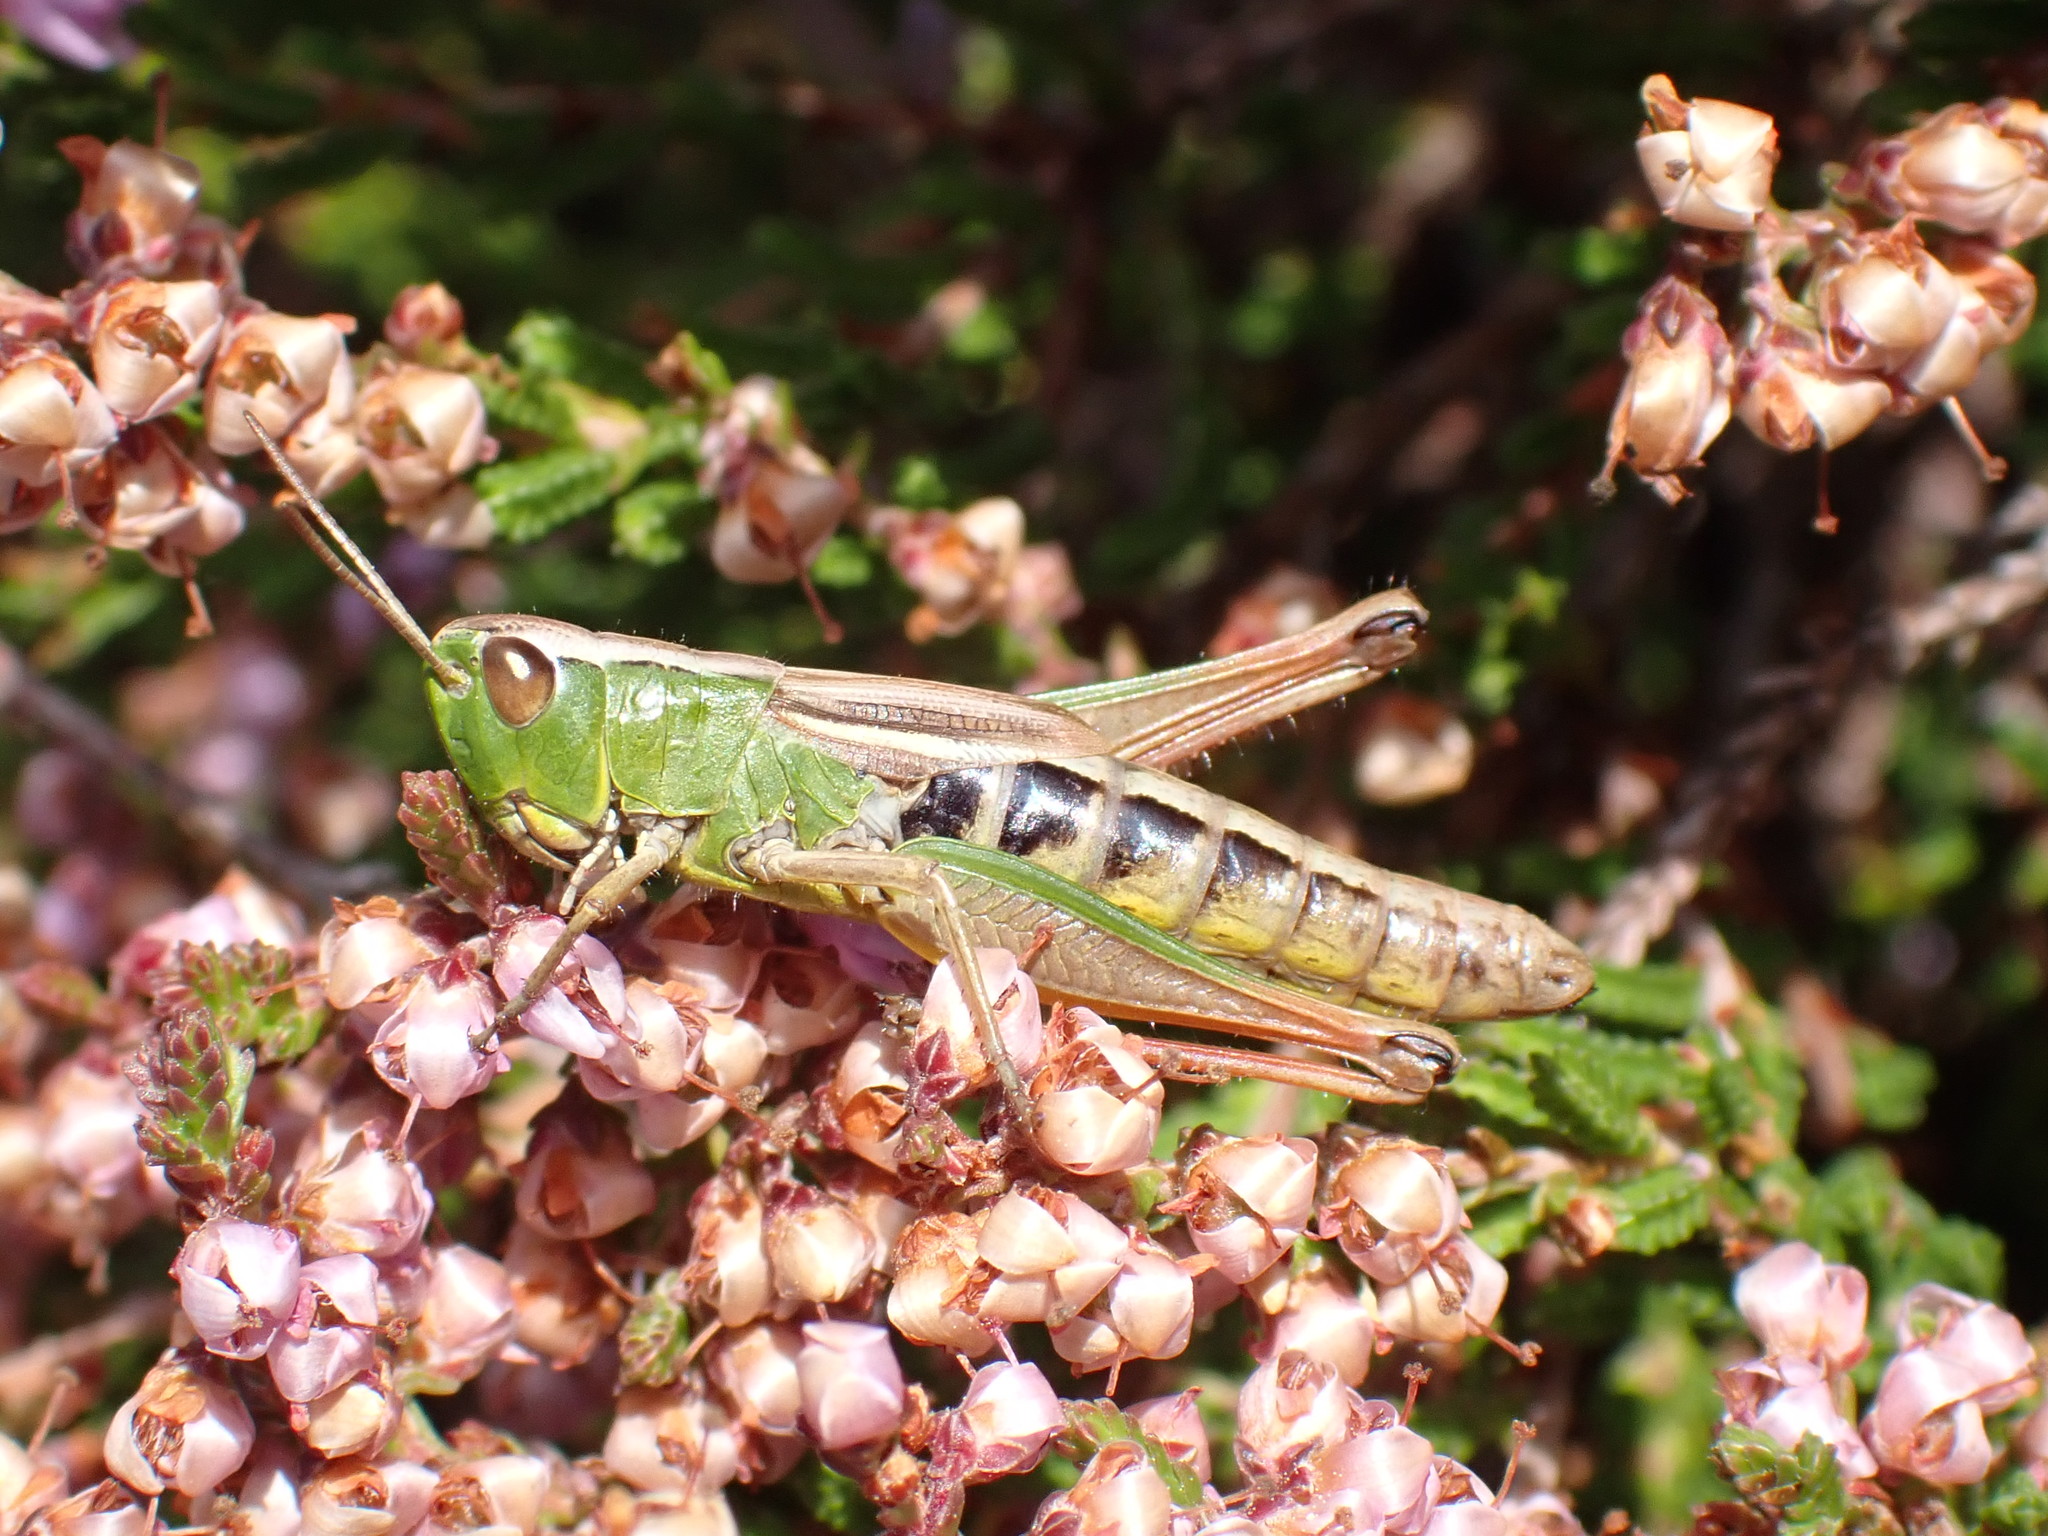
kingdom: Animalia
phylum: Arthropoda
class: Insecta
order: Orthoptera
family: Acrididae
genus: Pseudochorthippus
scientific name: Pseudochorthippus parallelus
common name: Meadow grasshopper
